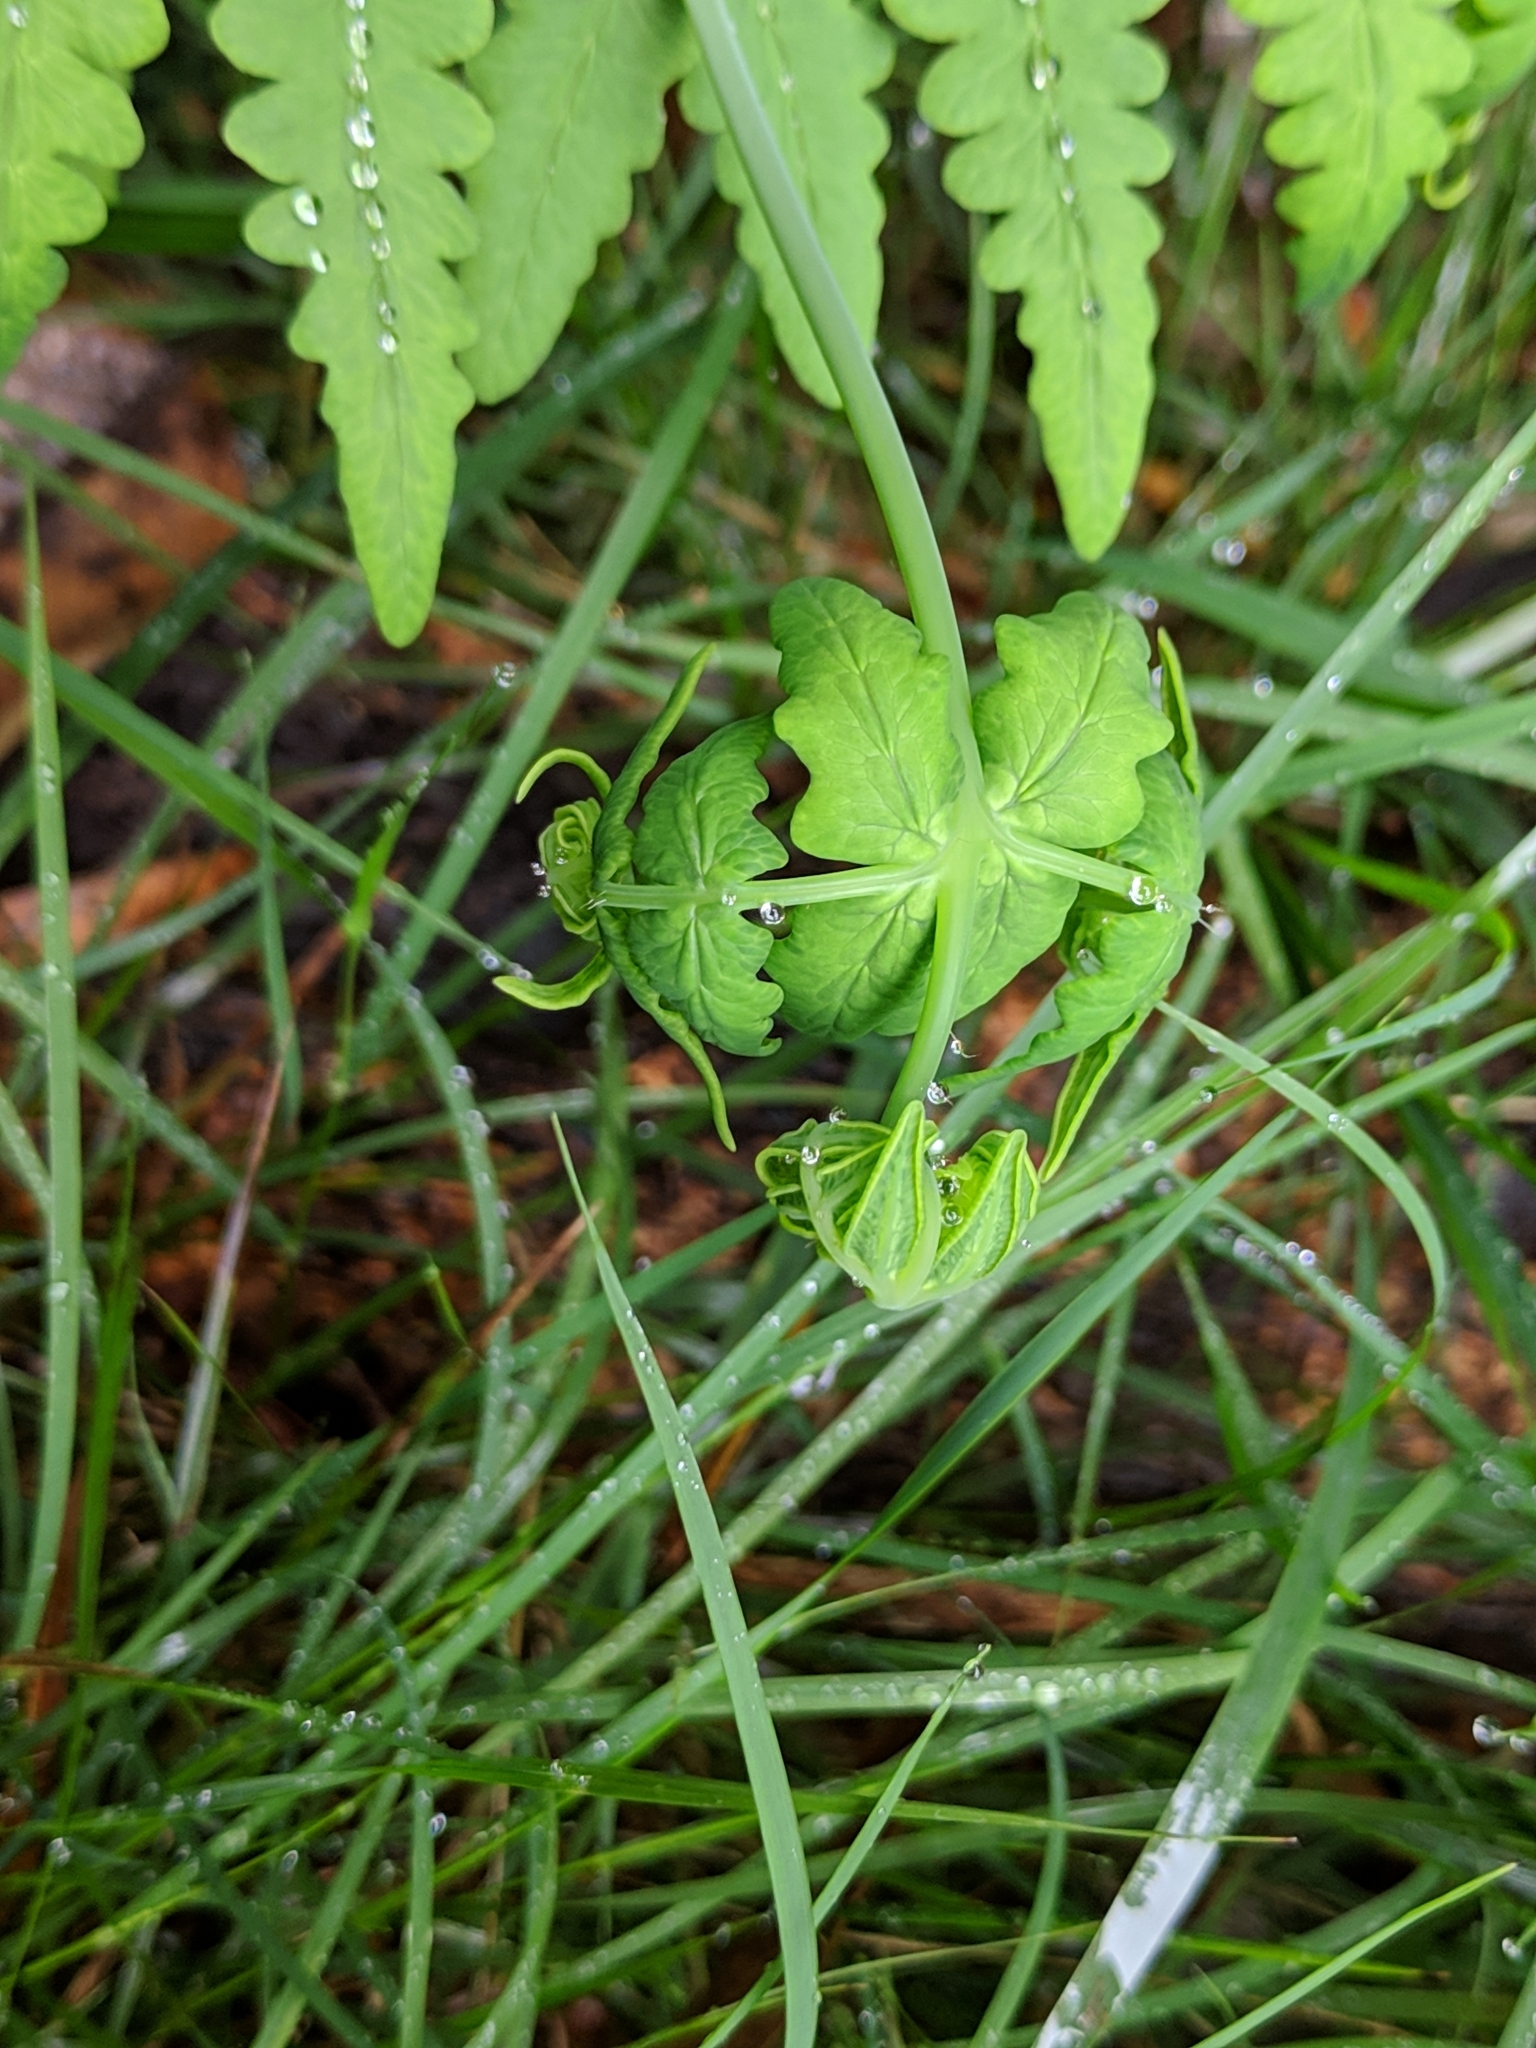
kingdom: Plantae
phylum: Tracheophyta
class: Polypodiopsida
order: Polypodiales
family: Dennstaedtiaceae
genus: Histiopteris
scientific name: Histiopteris incisa
